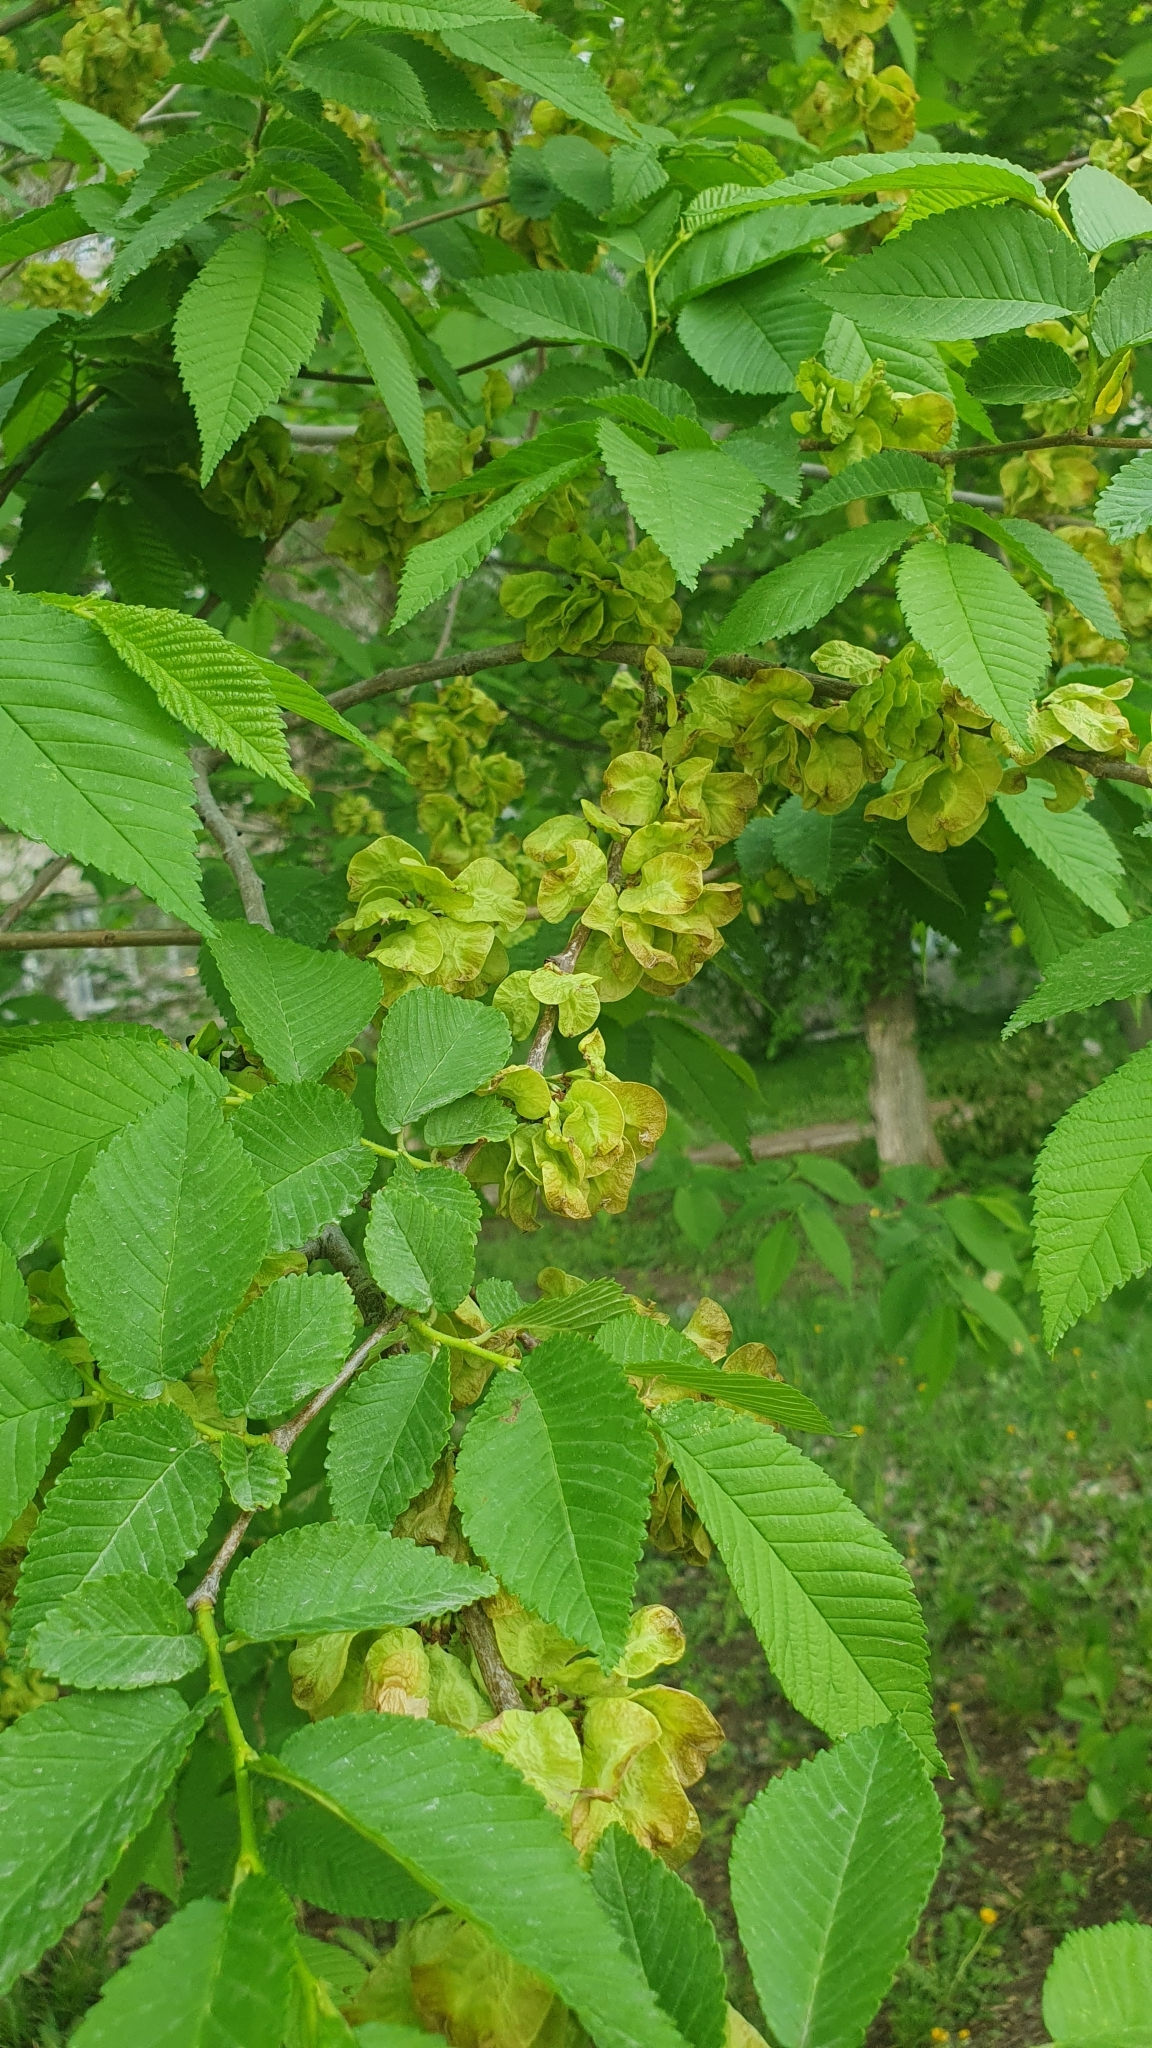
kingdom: Plantae
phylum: Tracheophyta
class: Magnoliopsida
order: Rosales
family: Ulmaceae
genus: Ulmus
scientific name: Ulmus glabra
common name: Wych elm
